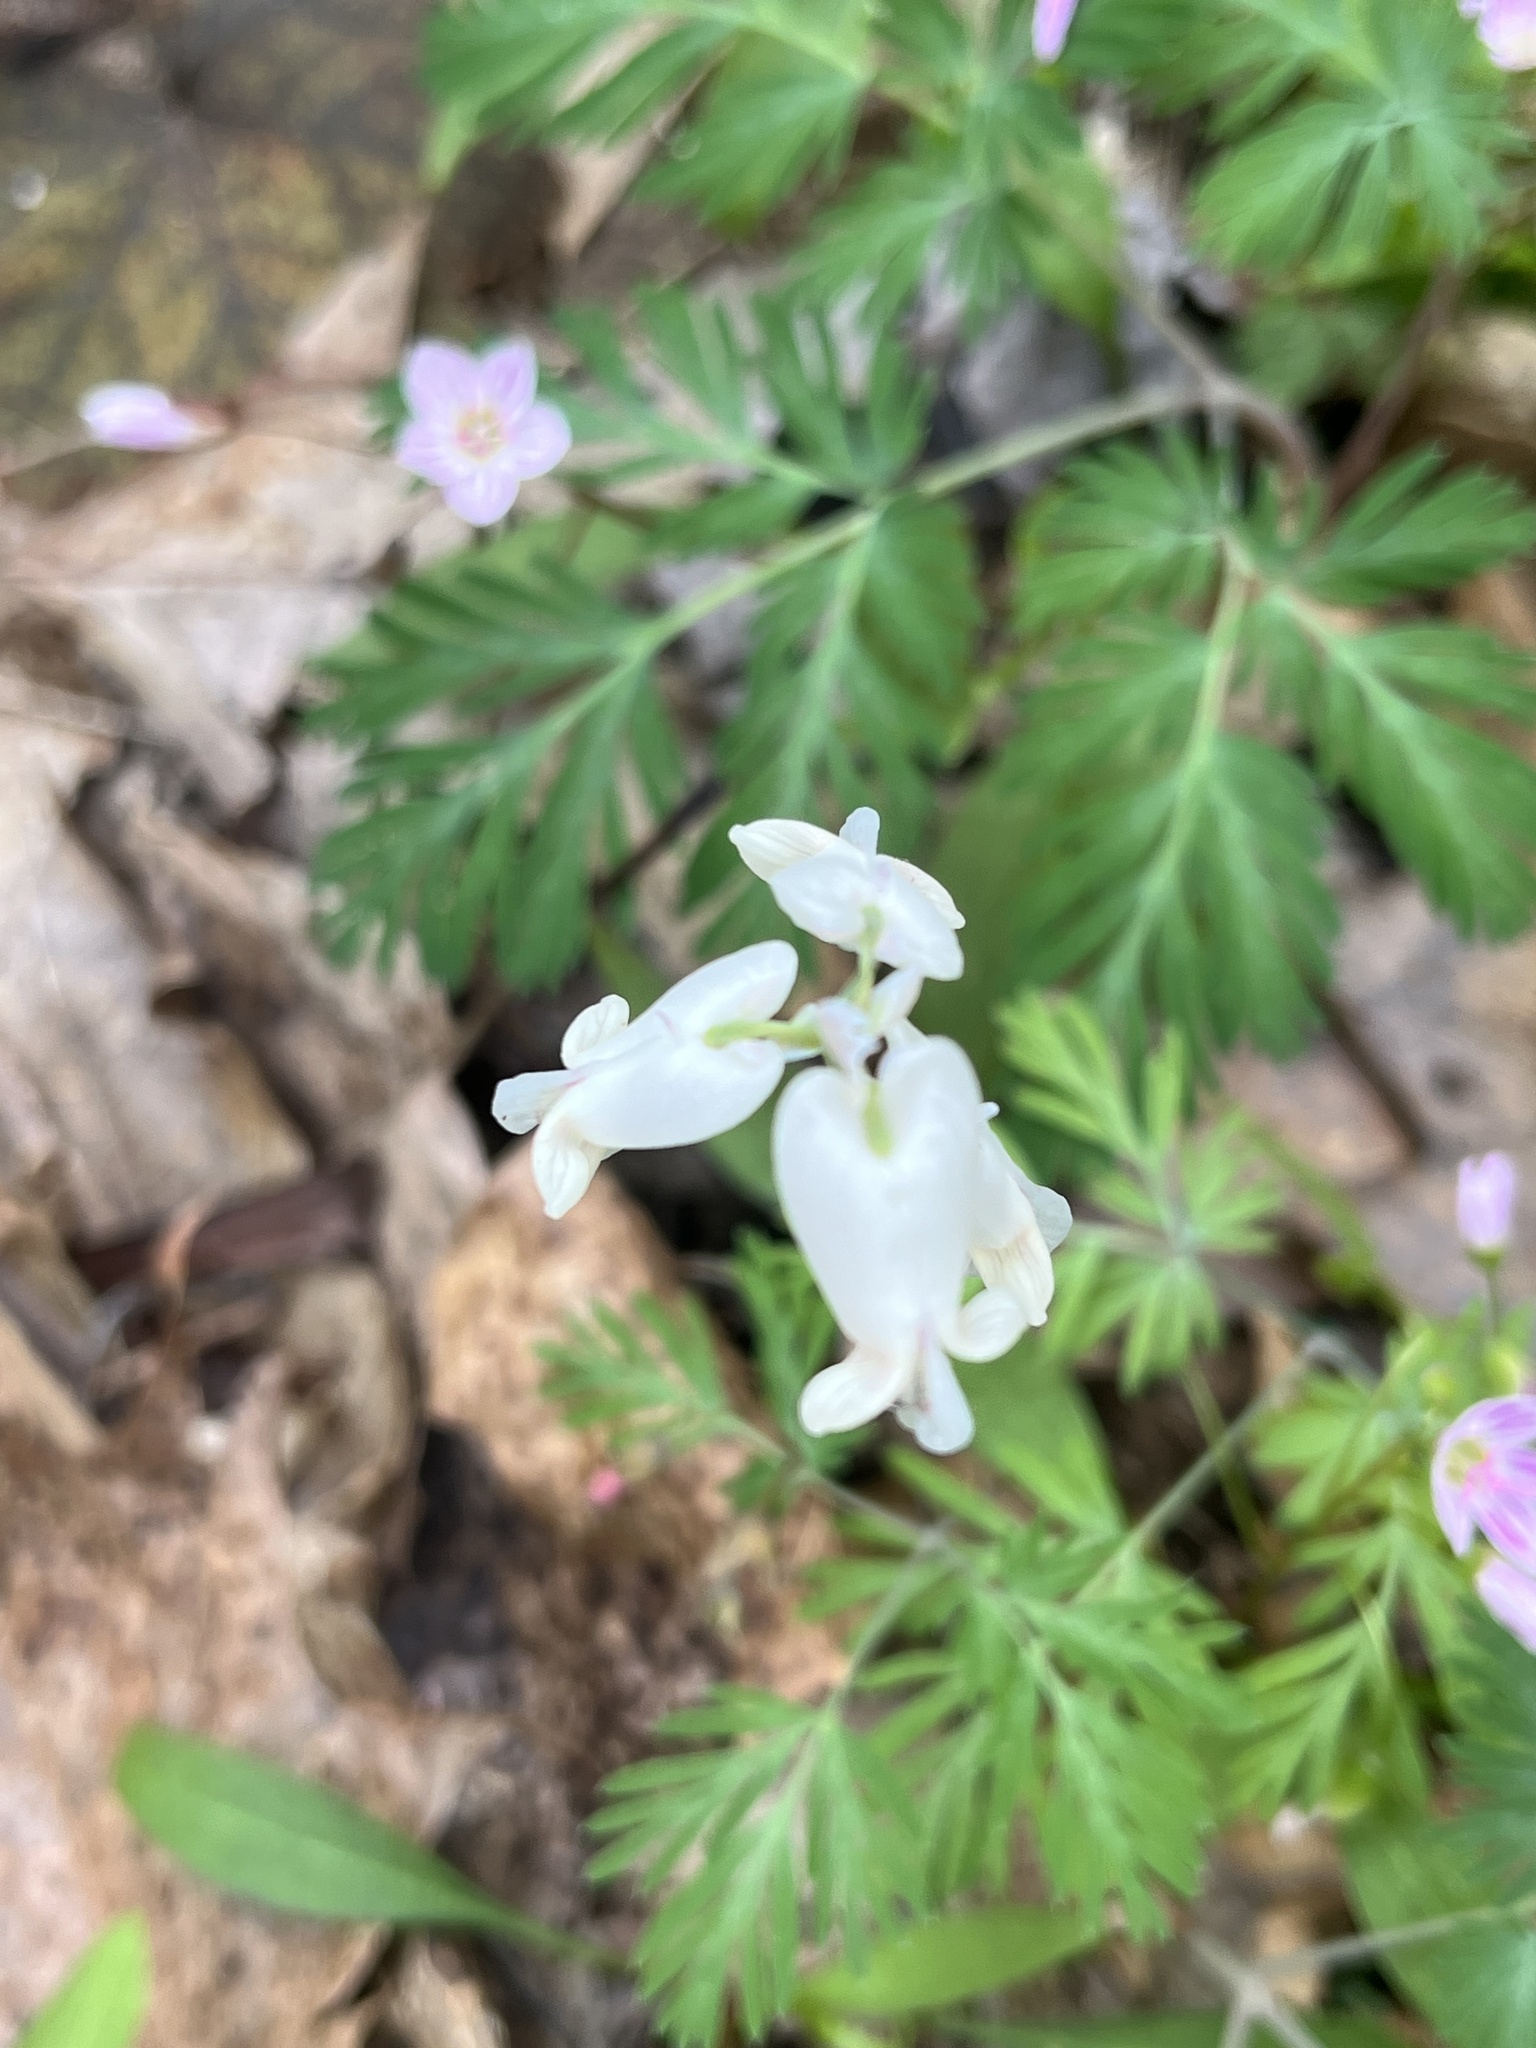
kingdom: Plantae
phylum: Tracheophyta
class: Magnoliopsida
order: Ranunculales
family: Papaveraceae
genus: Dicentra
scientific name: Dicentra canadensis
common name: Squirrel-corn
